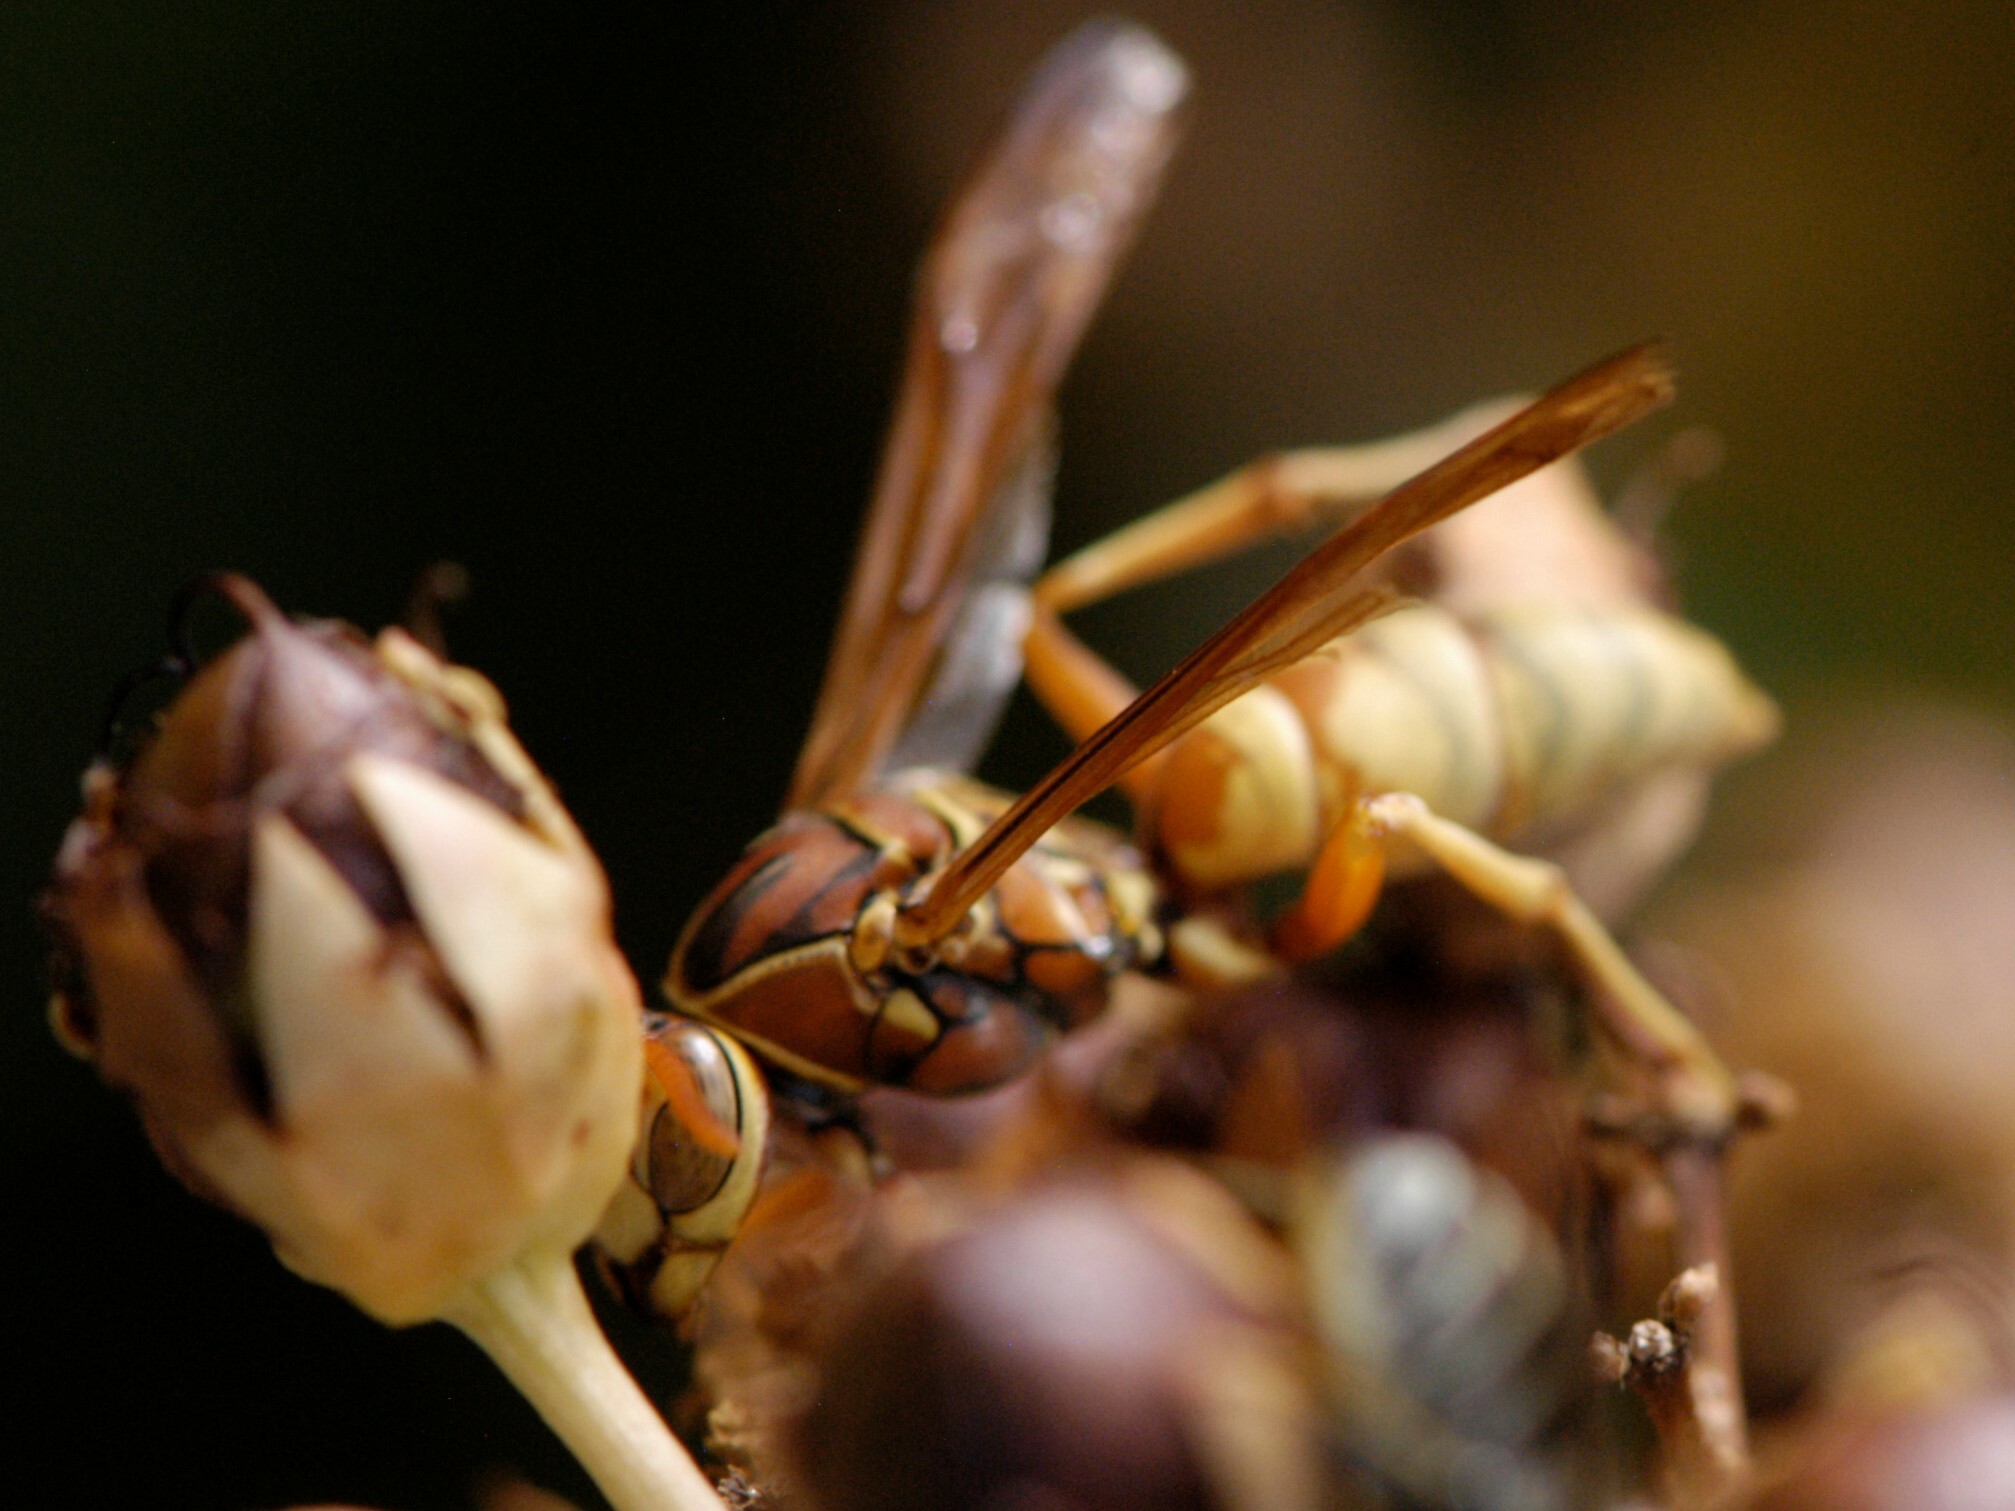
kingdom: Animalia
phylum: Arthropoda
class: Insecta
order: Hymenoptera
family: Eumenidae
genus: Polistes
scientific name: Polistes aurifer
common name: Paper wasp
